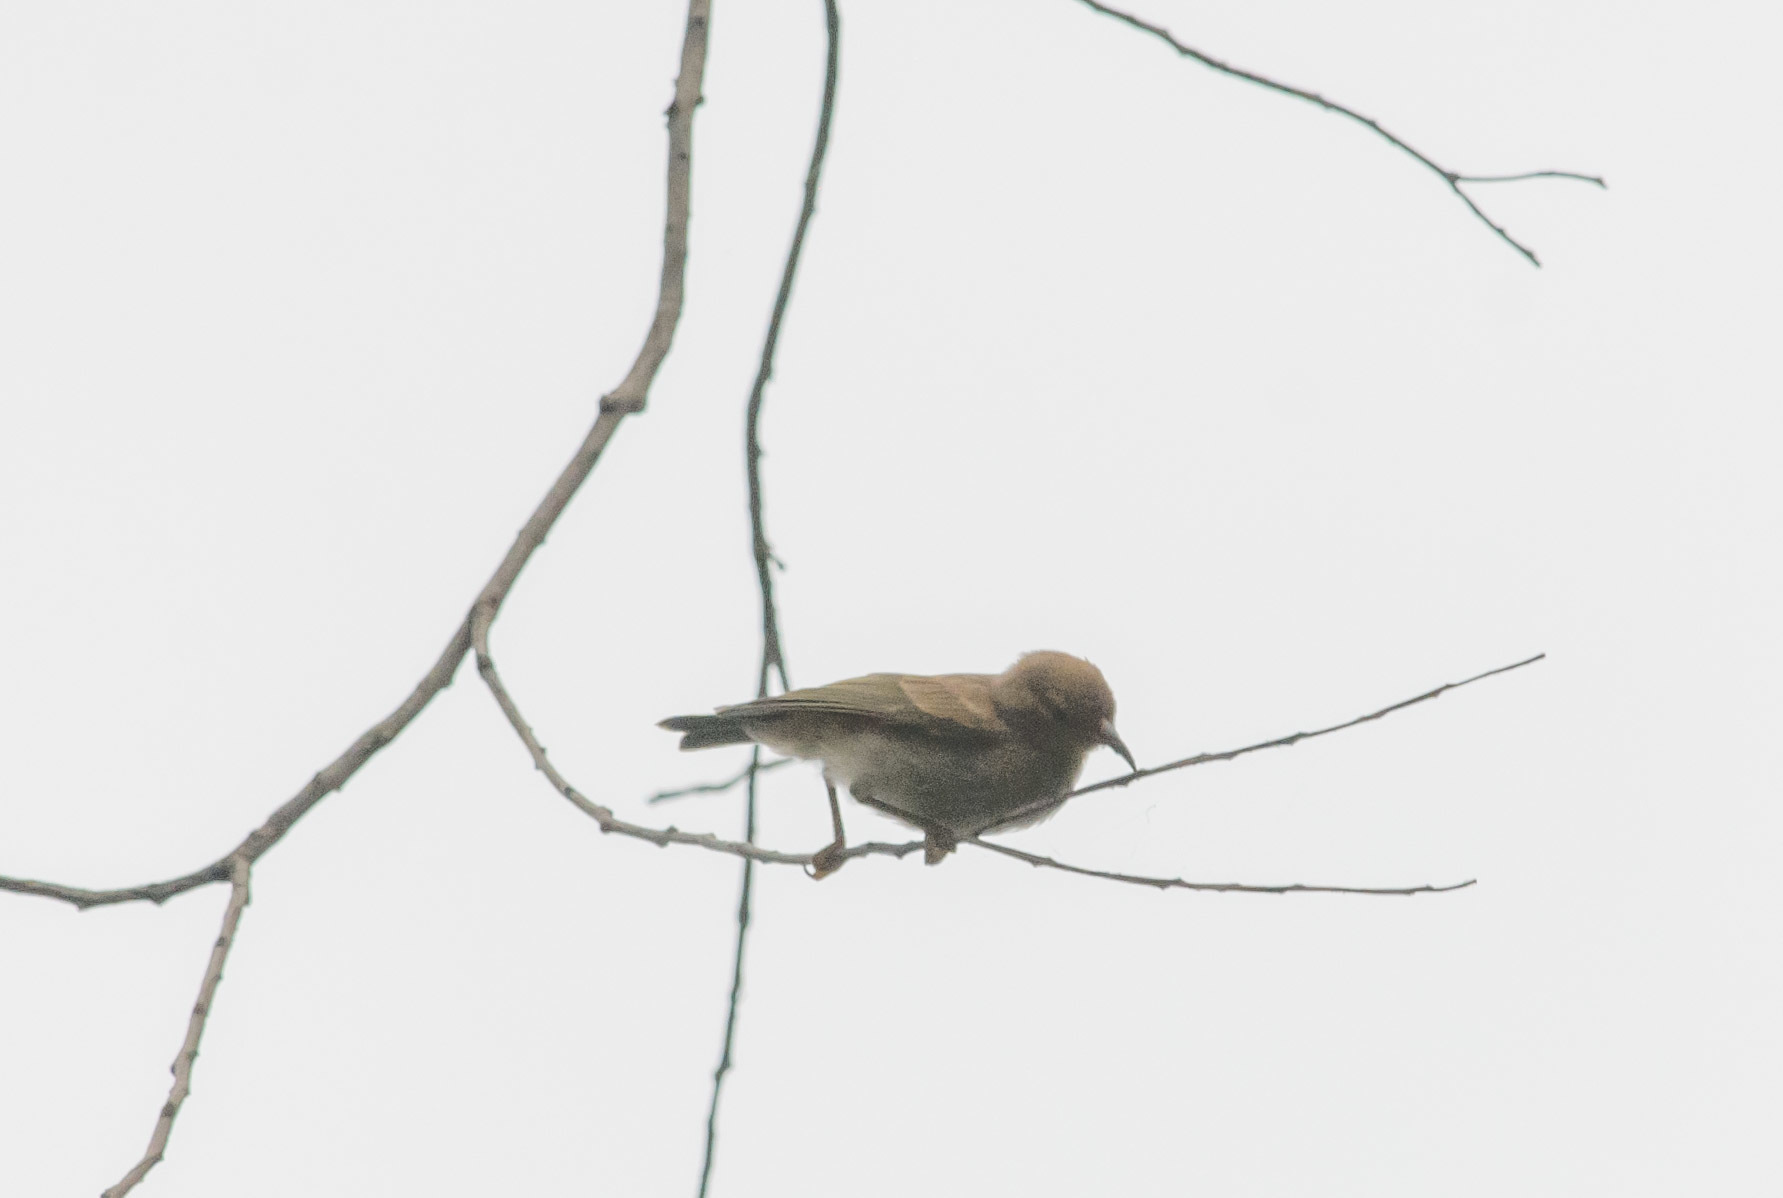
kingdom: Animalia
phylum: Chordata
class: Aves
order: Passeriformes
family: Meliphagidae
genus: Myzomela
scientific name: Myzomela sanguinolenta
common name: Scarlet myzomela
